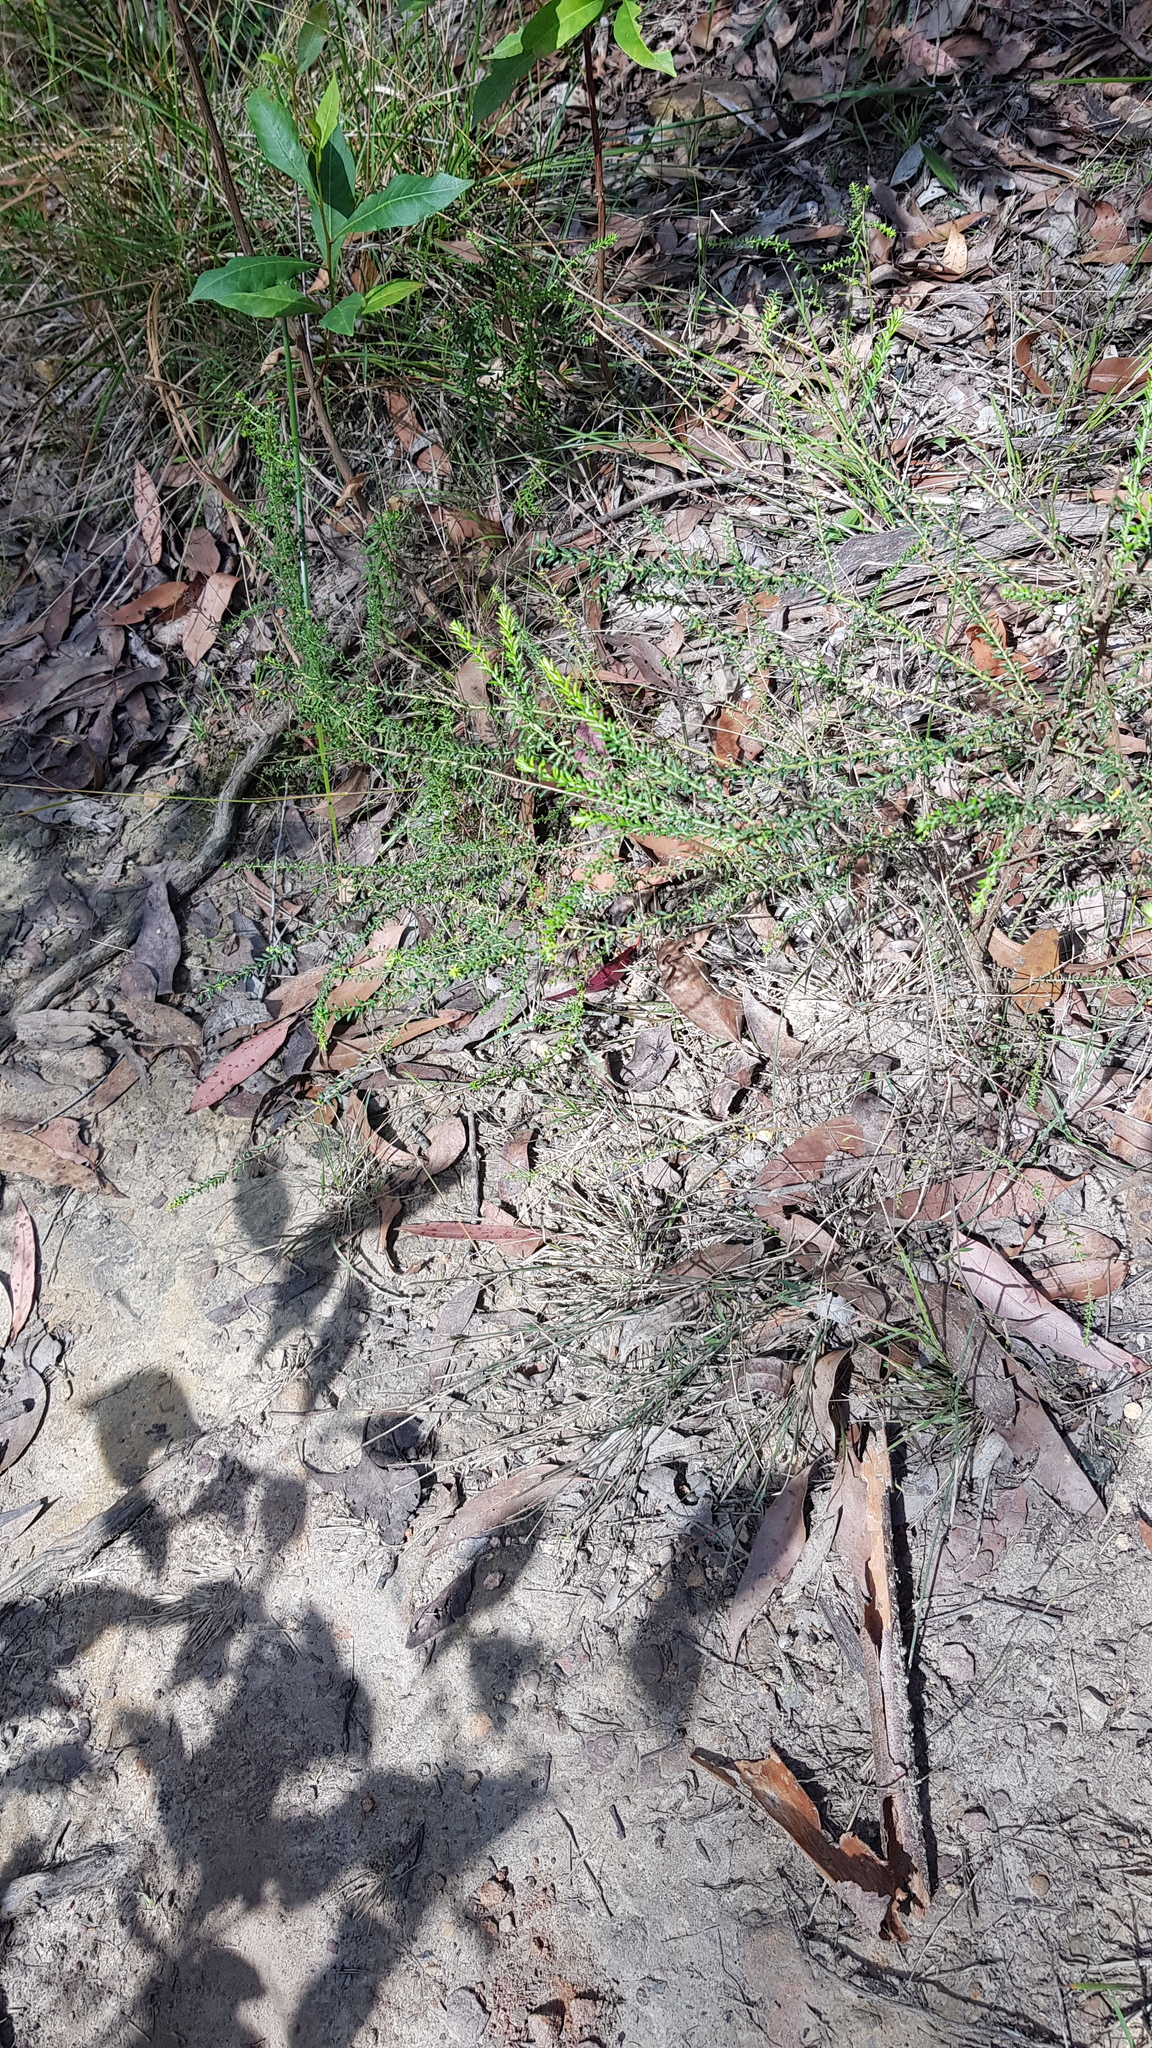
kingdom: Animalia
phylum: Arthropoda
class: Arachnida
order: Araneae
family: Corinnidae
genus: Nyssus
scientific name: Nyssus albopunctatus
